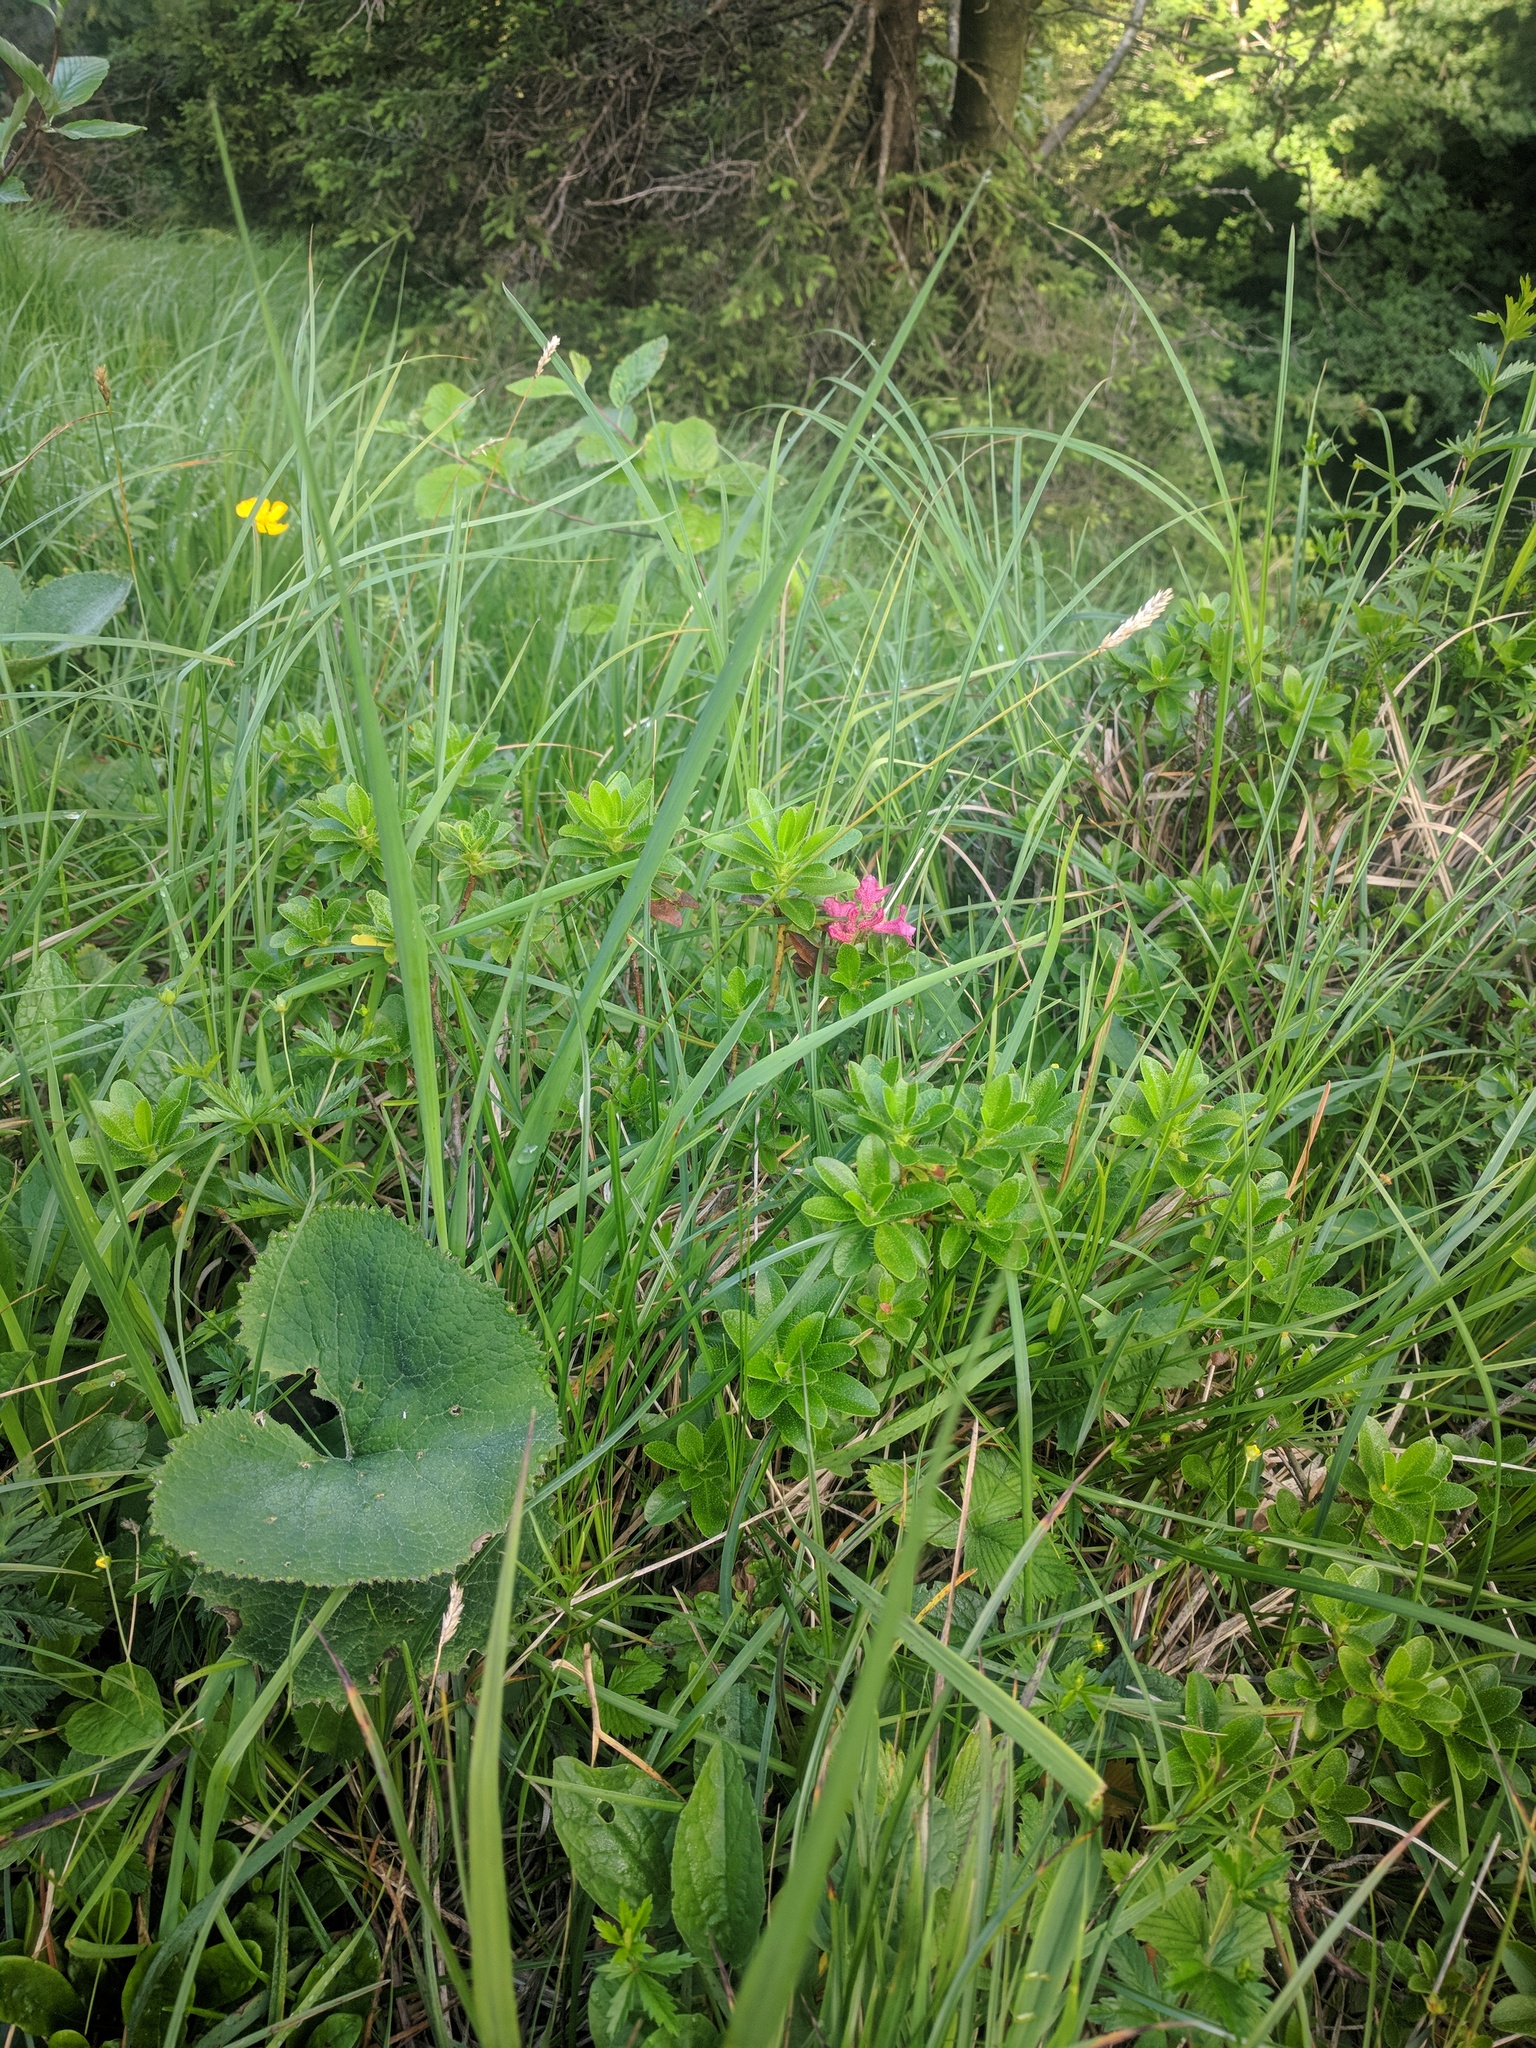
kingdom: Plantae
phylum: Tracheophyta
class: Magnoliopsida
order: Ericales
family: Ericaceae
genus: Rhododendron
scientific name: Rhododendron hirsutum
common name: Hairy alpenrose
